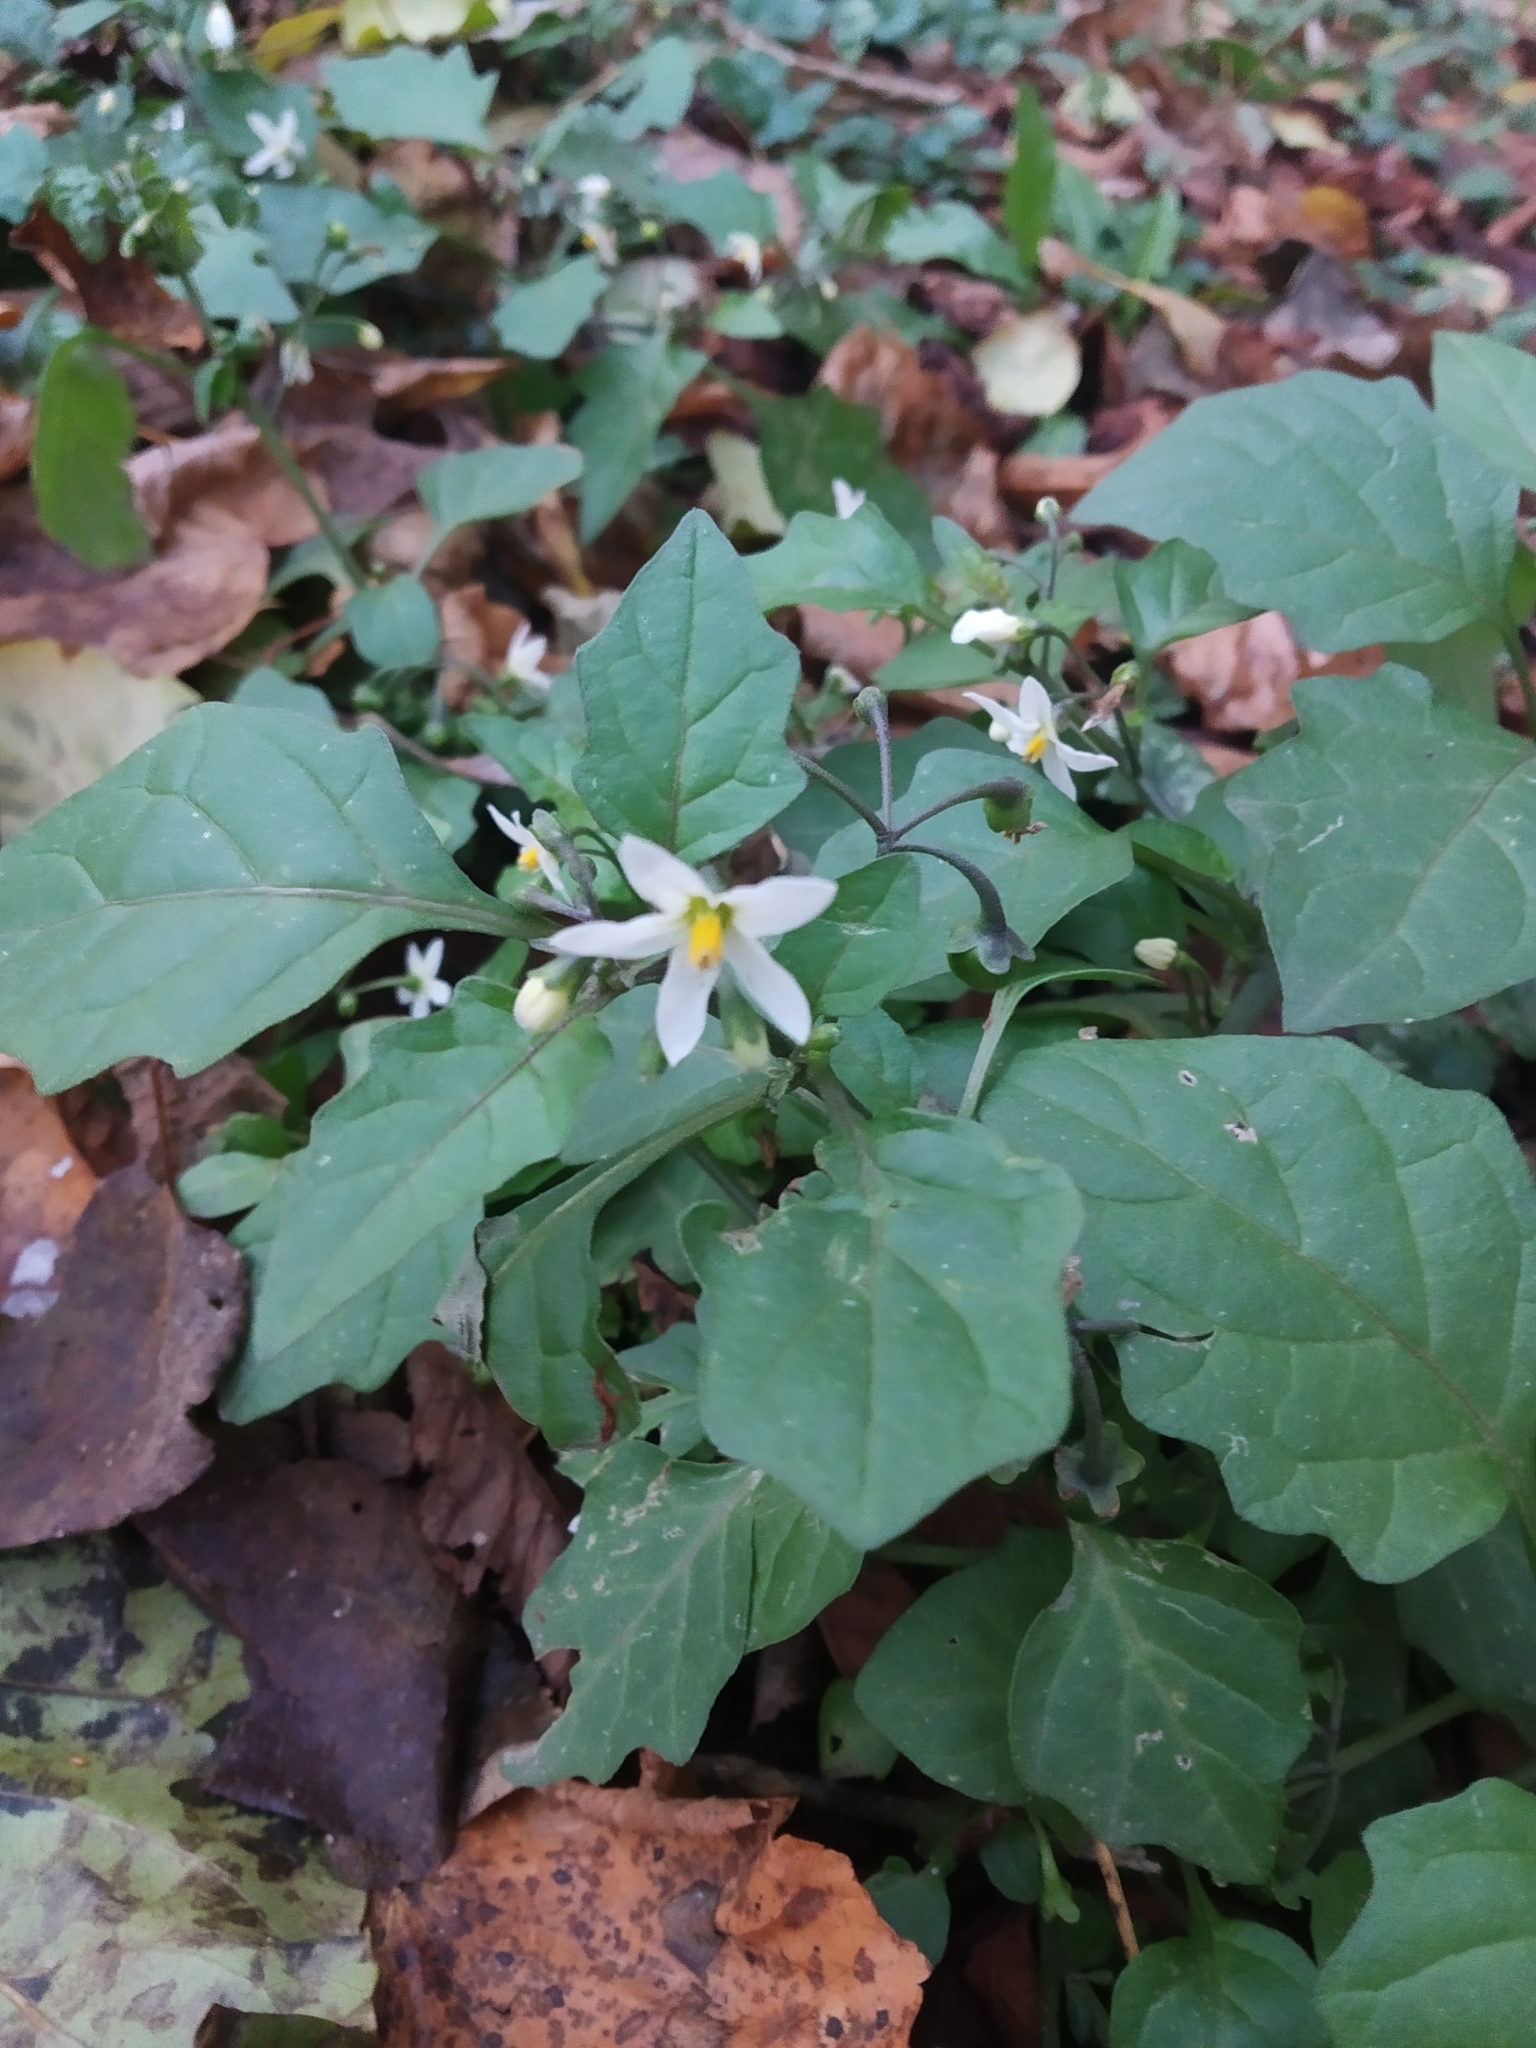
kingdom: Plantae
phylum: Tracheophyta
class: Magnoliopsida
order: Solanales
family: Solanaceae
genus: Solanum
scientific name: Solanum nigrum
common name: Black nightshade
